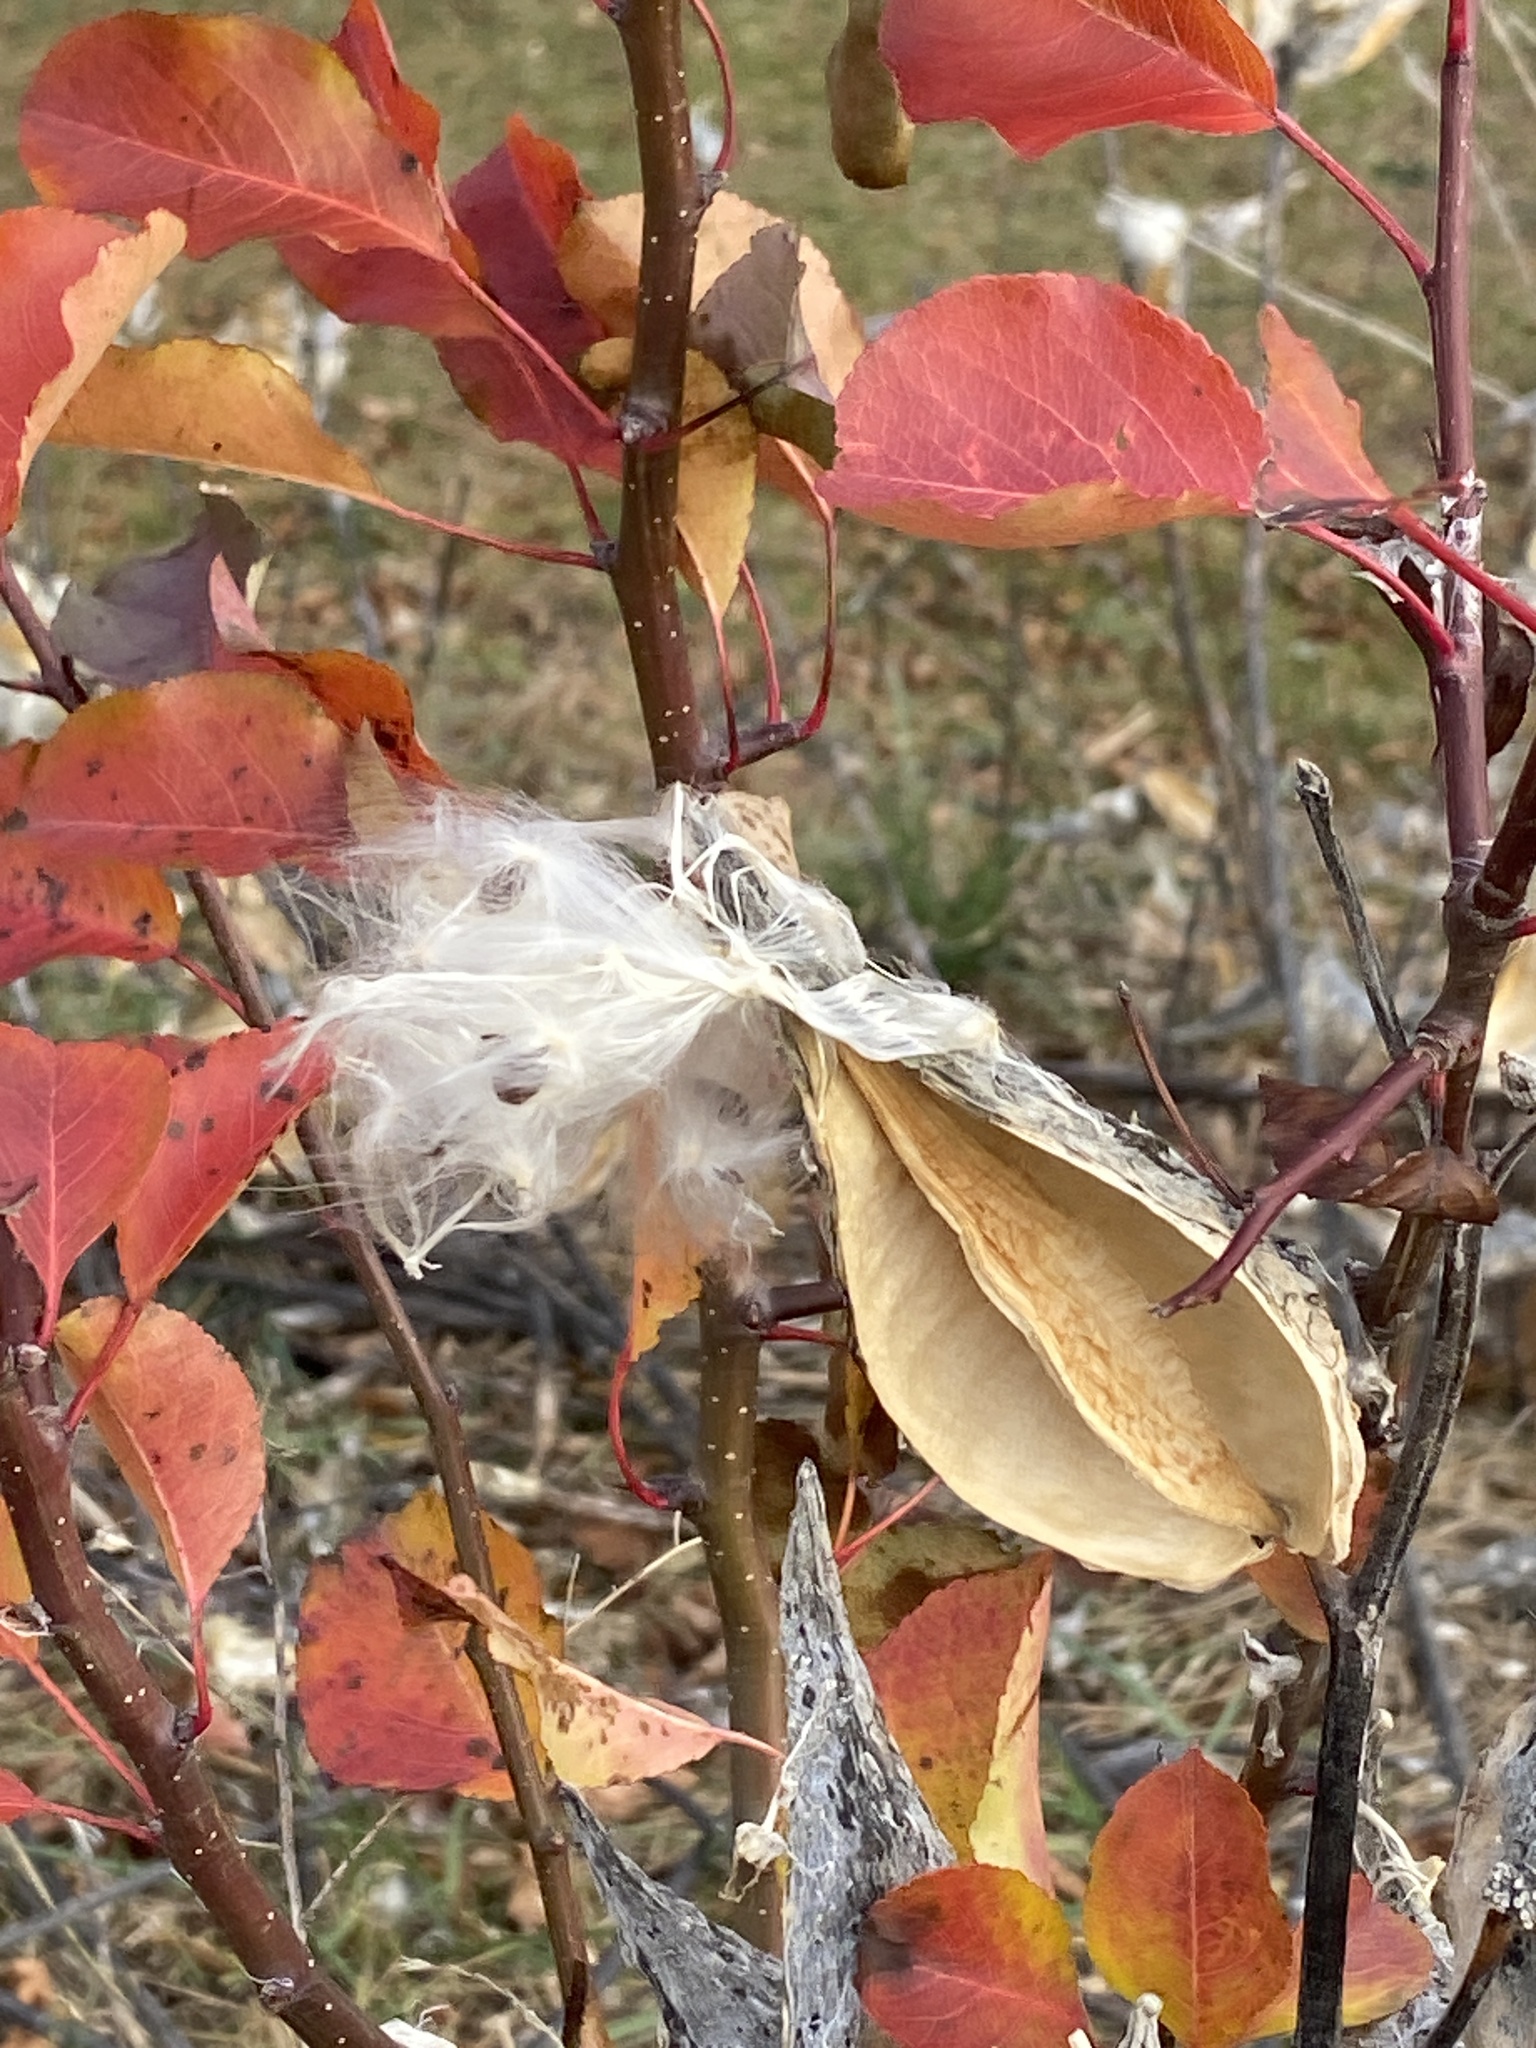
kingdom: Plantae
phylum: Tracheophyta
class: Magnoliopsida
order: Gentianales
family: Apocynaceae
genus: Asclepias
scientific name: Asclepias syriaca
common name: Common milkweed
